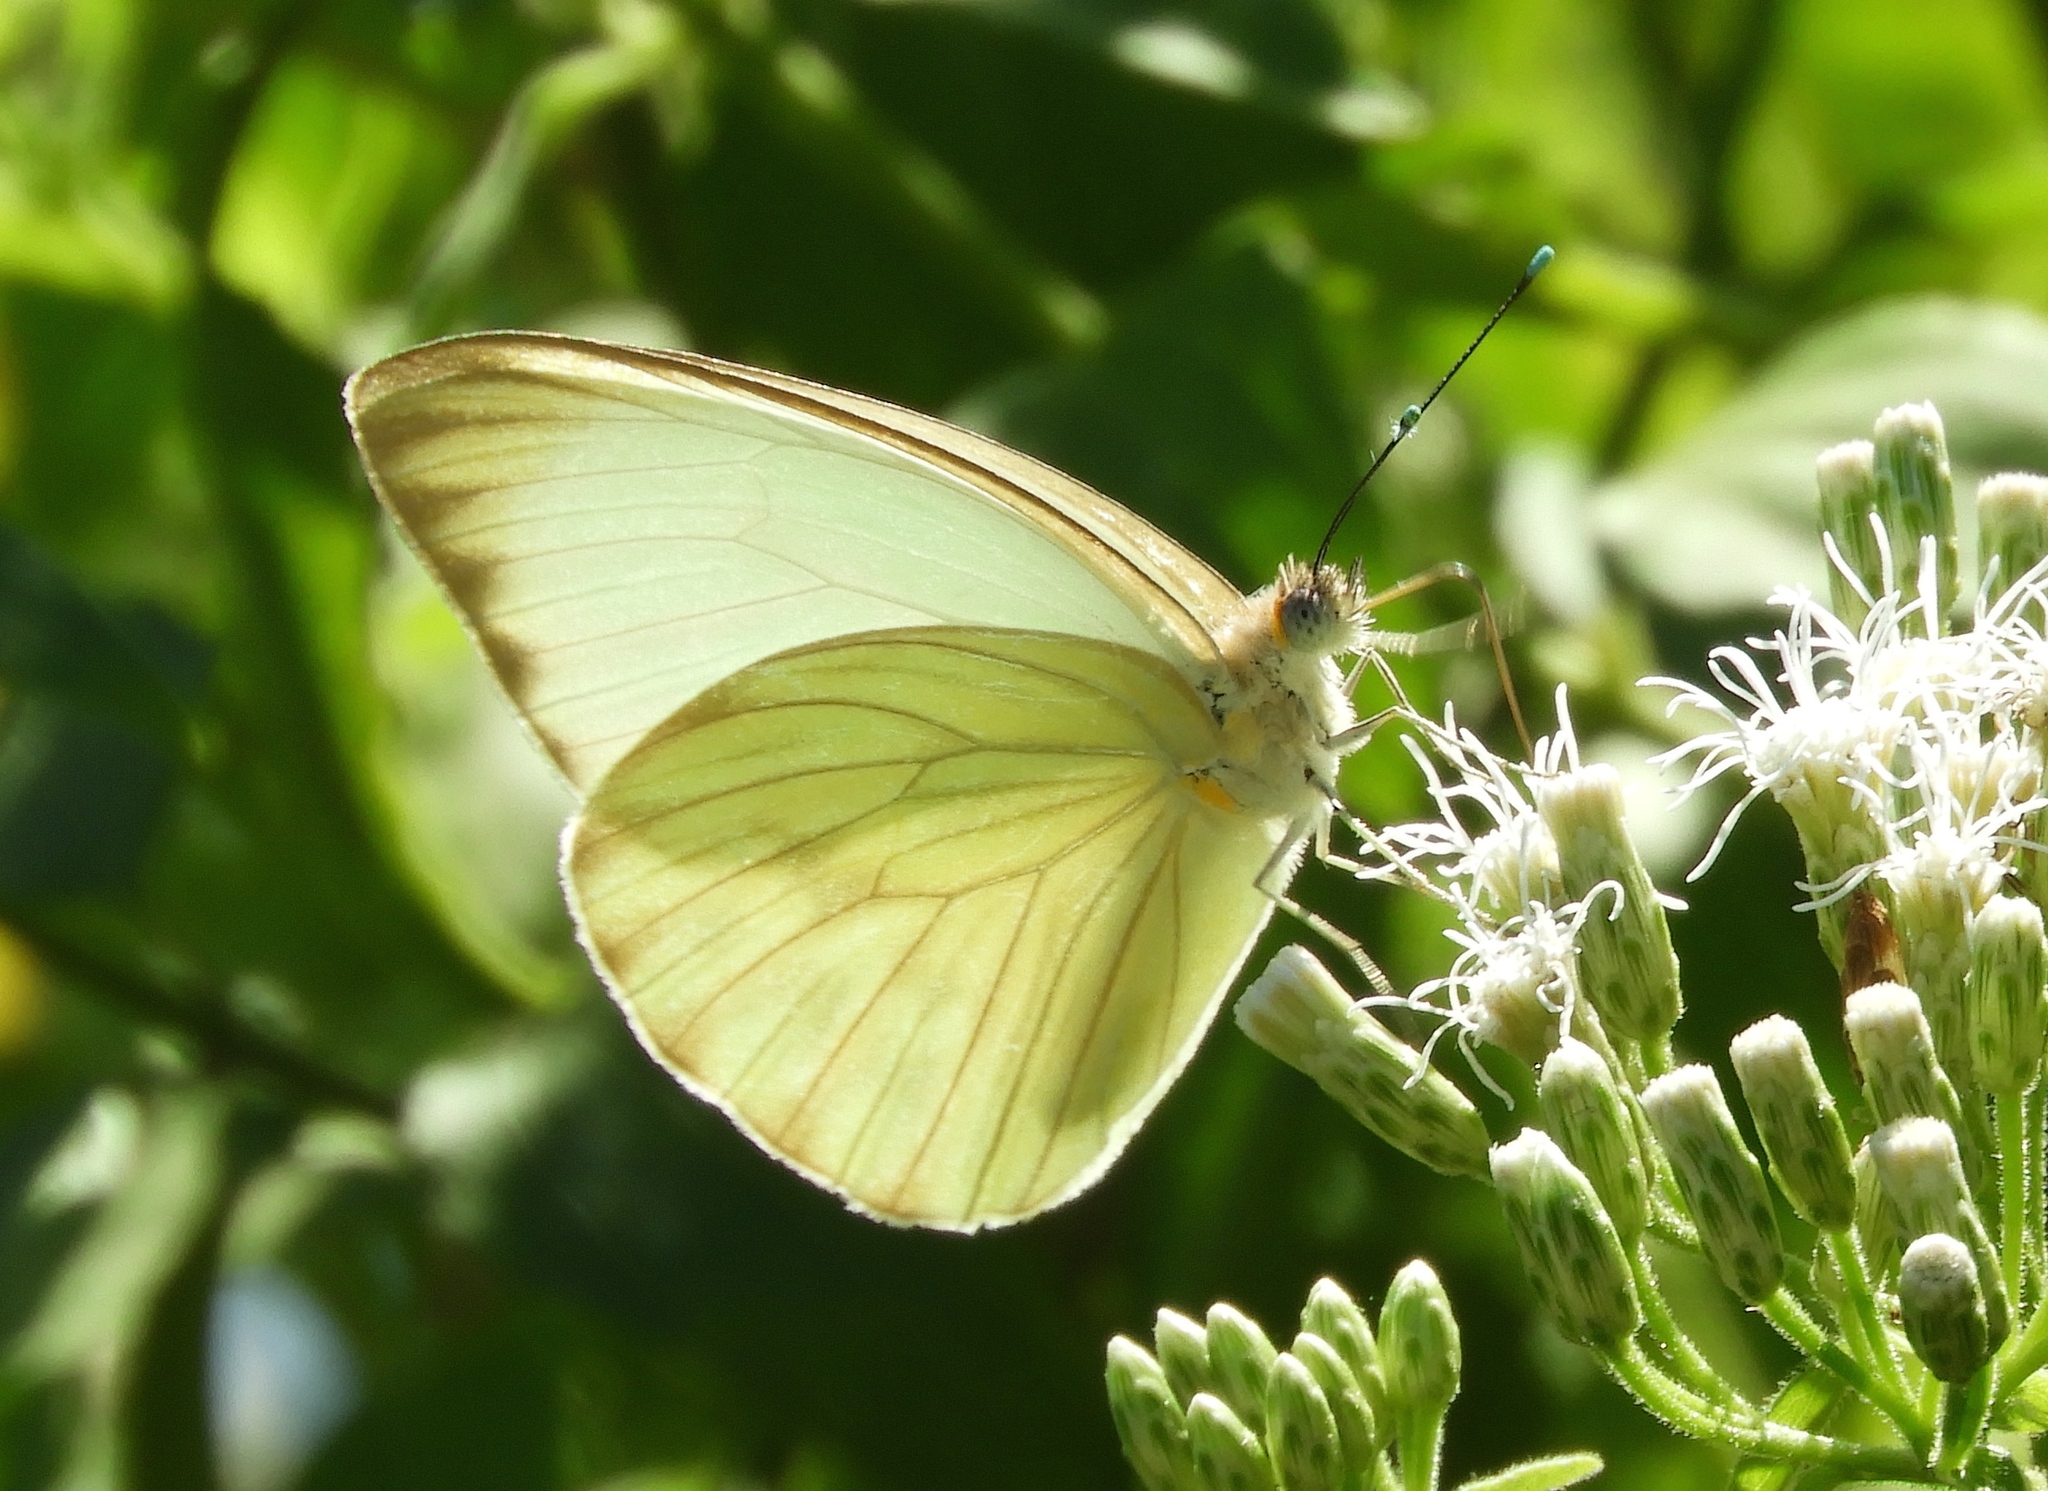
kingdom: Animalia
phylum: Arthropoda
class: Insecta
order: Lepidoptera
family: Pieridae
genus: Ascia
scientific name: Ascia monuste
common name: Great southern white
